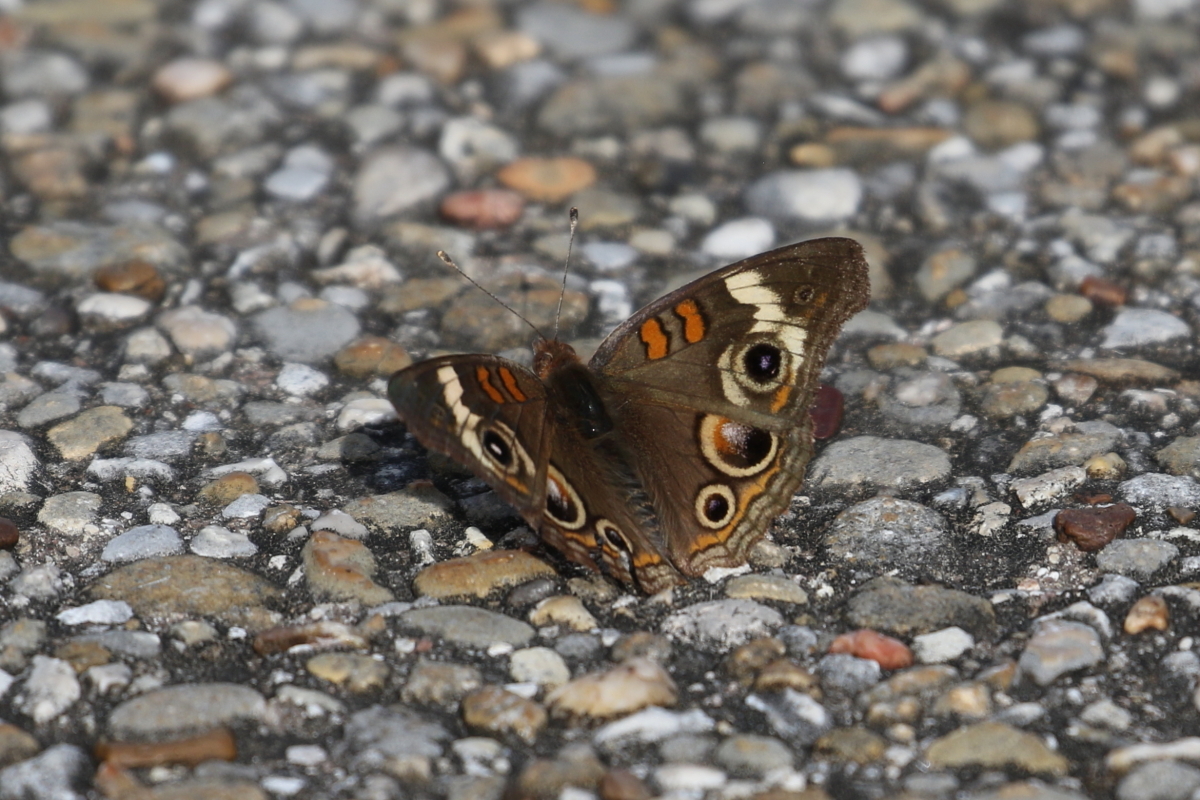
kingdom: Animalia
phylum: Arthropoda
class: Insecta
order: Lepidoptera
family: Nymphalidae
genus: Junonia
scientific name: Junonia coenia
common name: Common buckeye
